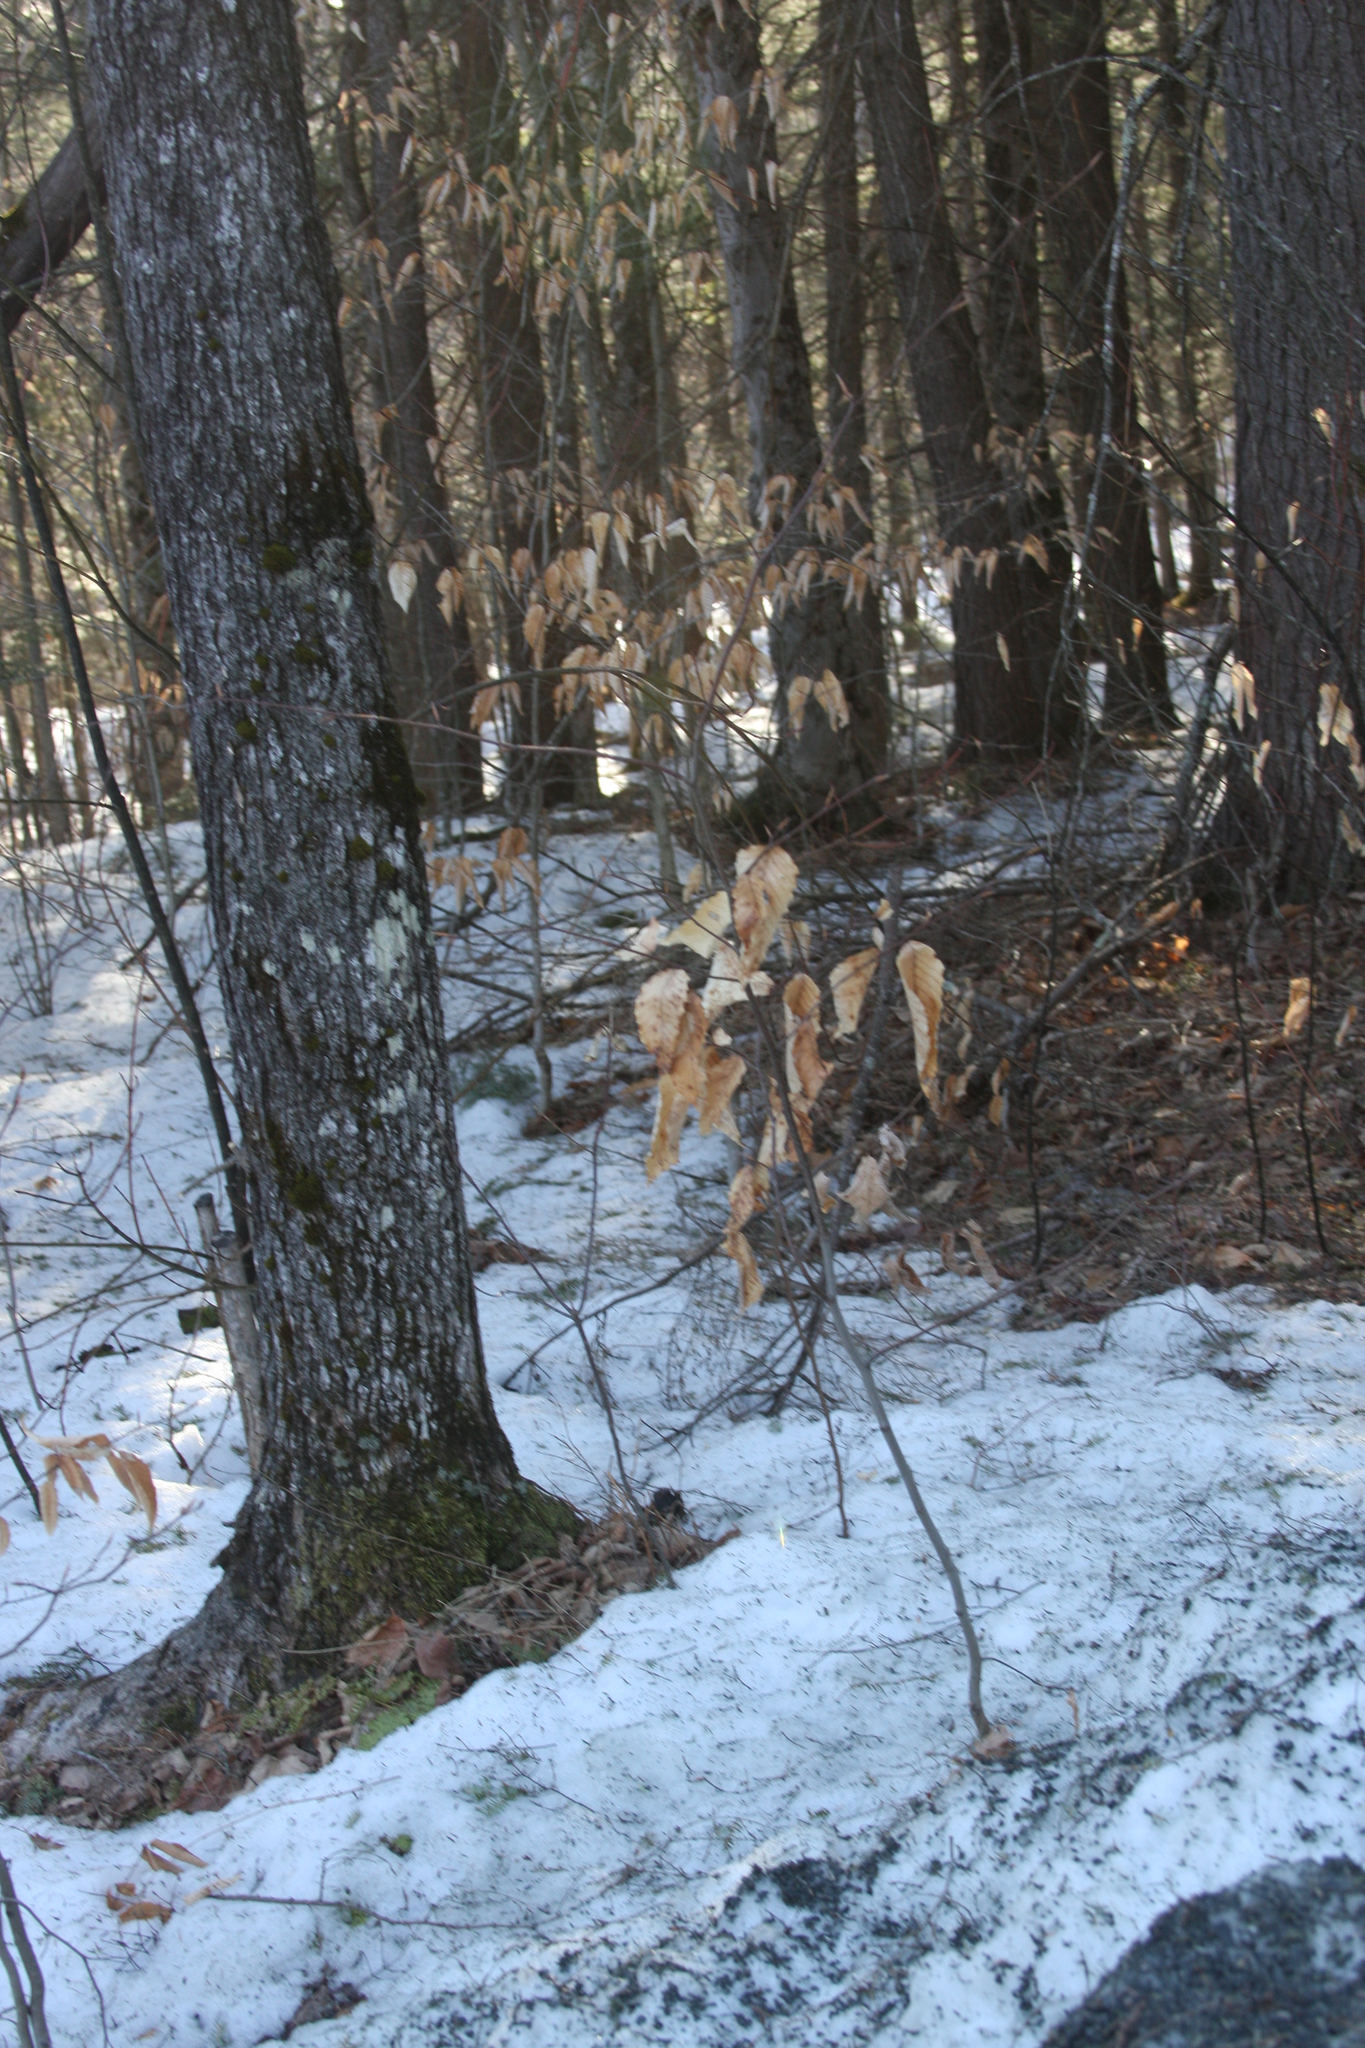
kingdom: Plantae
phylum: Tracheophyta
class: Magnoliopsida
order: Fagales
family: Fagaceae
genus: Fagus
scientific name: Fagus grandifolia
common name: American beech
